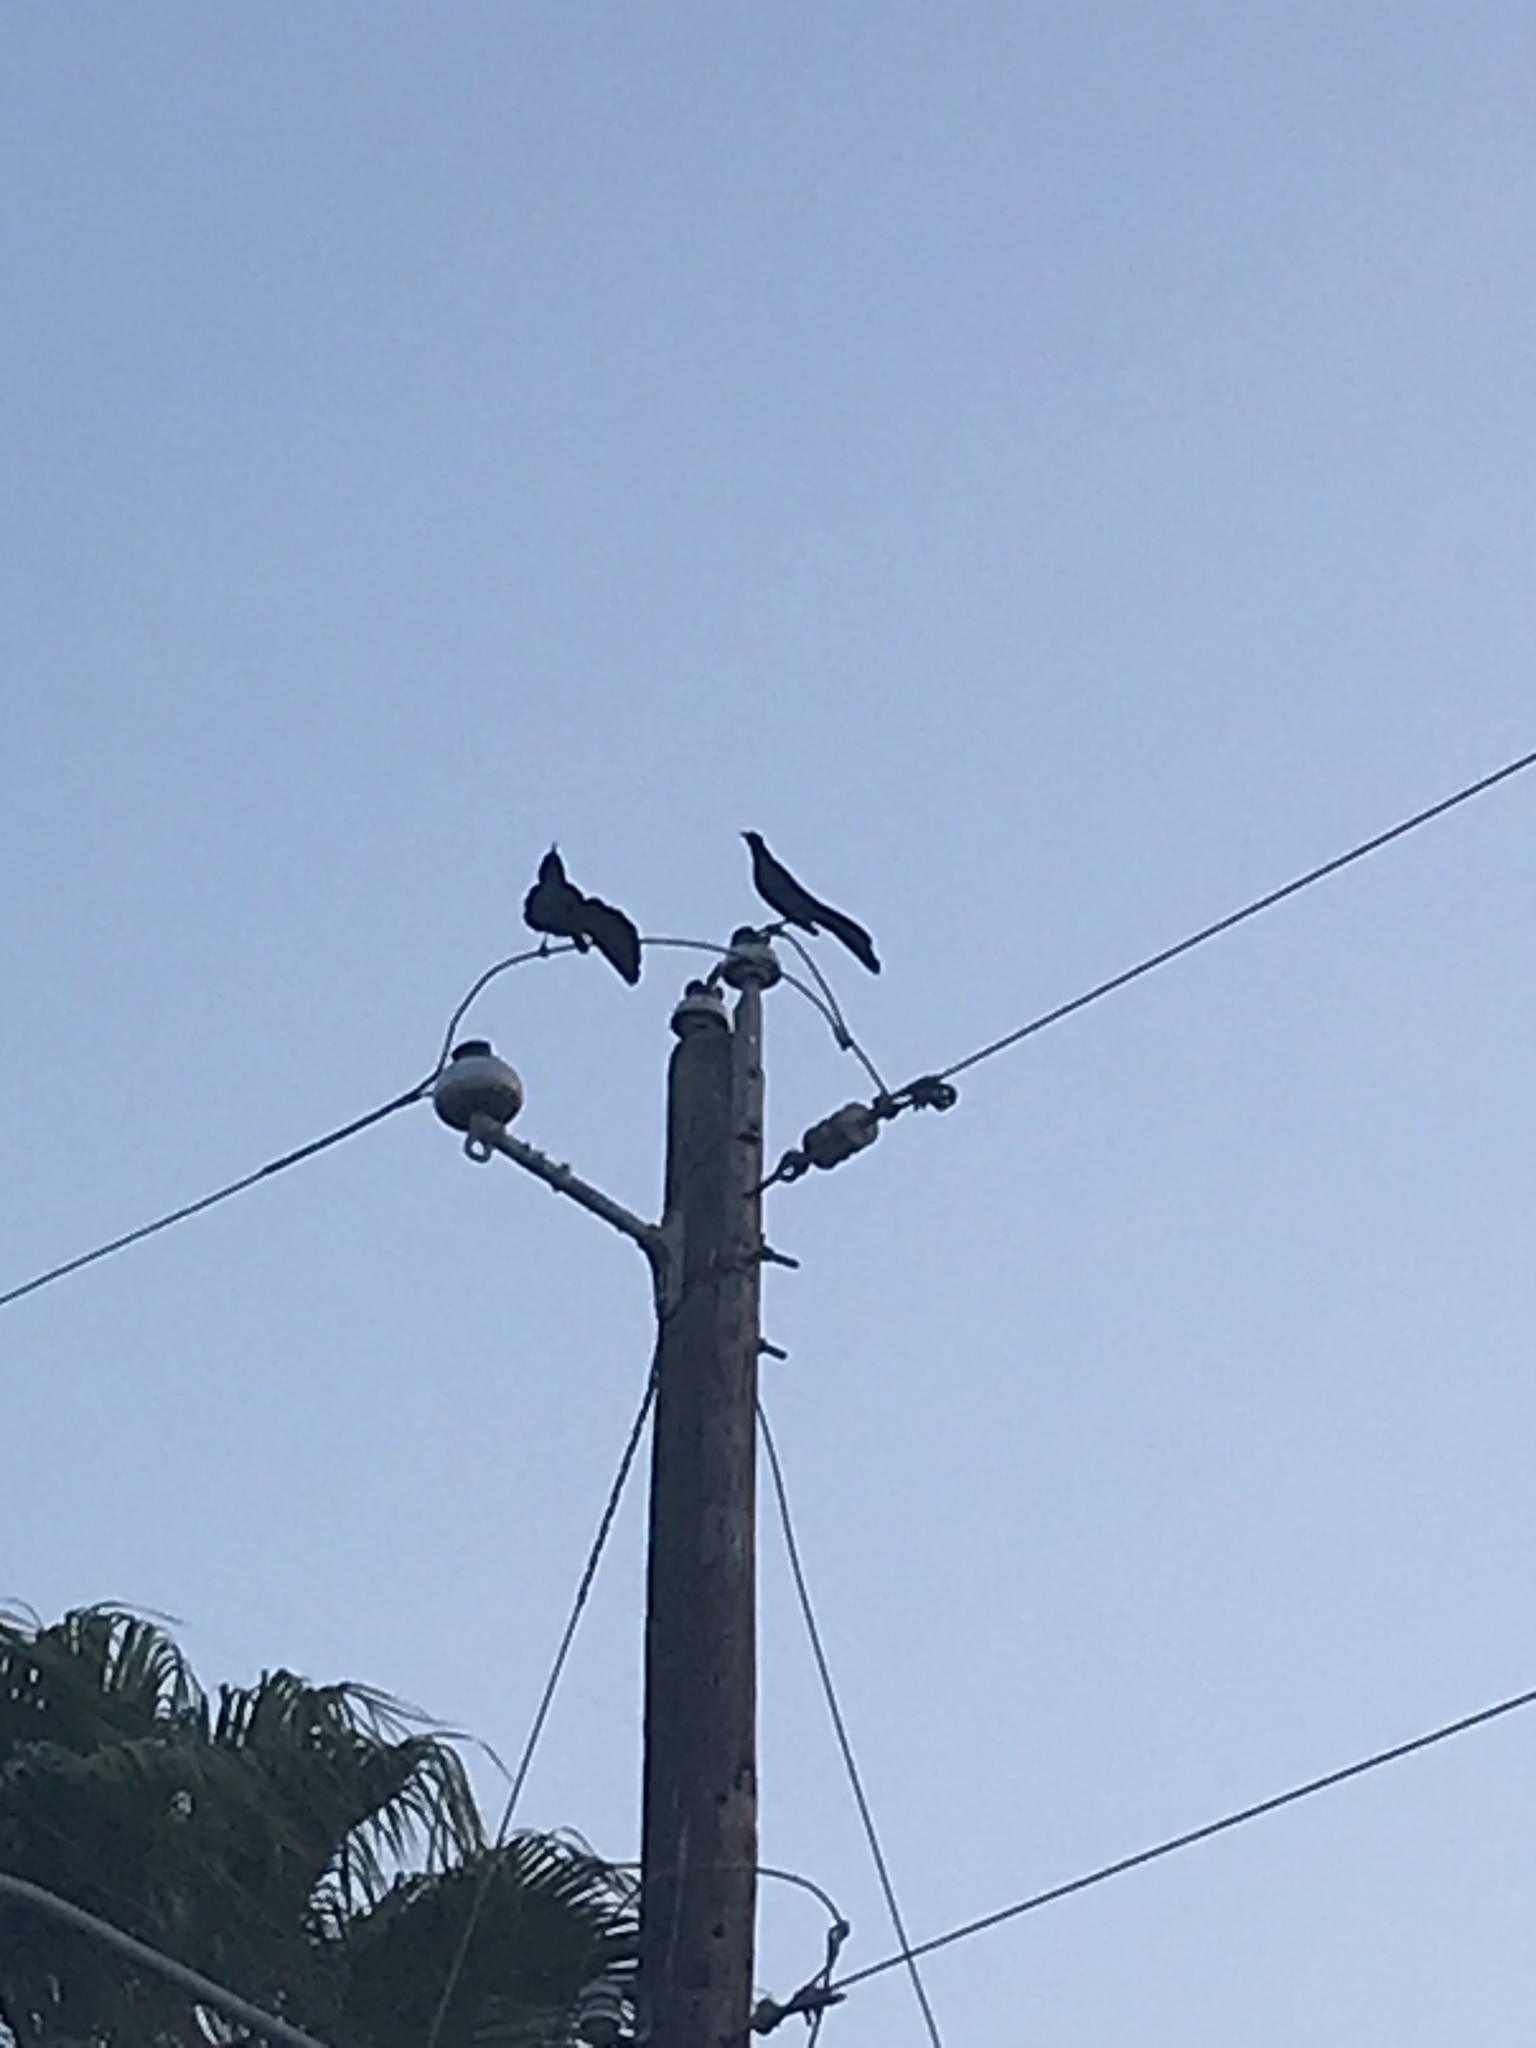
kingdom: Animalia
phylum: Chordata
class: Aves
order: Passeriformes
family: Icteridae
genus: Quiscalus
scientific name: Quiscalus mexicanus
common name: Great-tailed grackle
